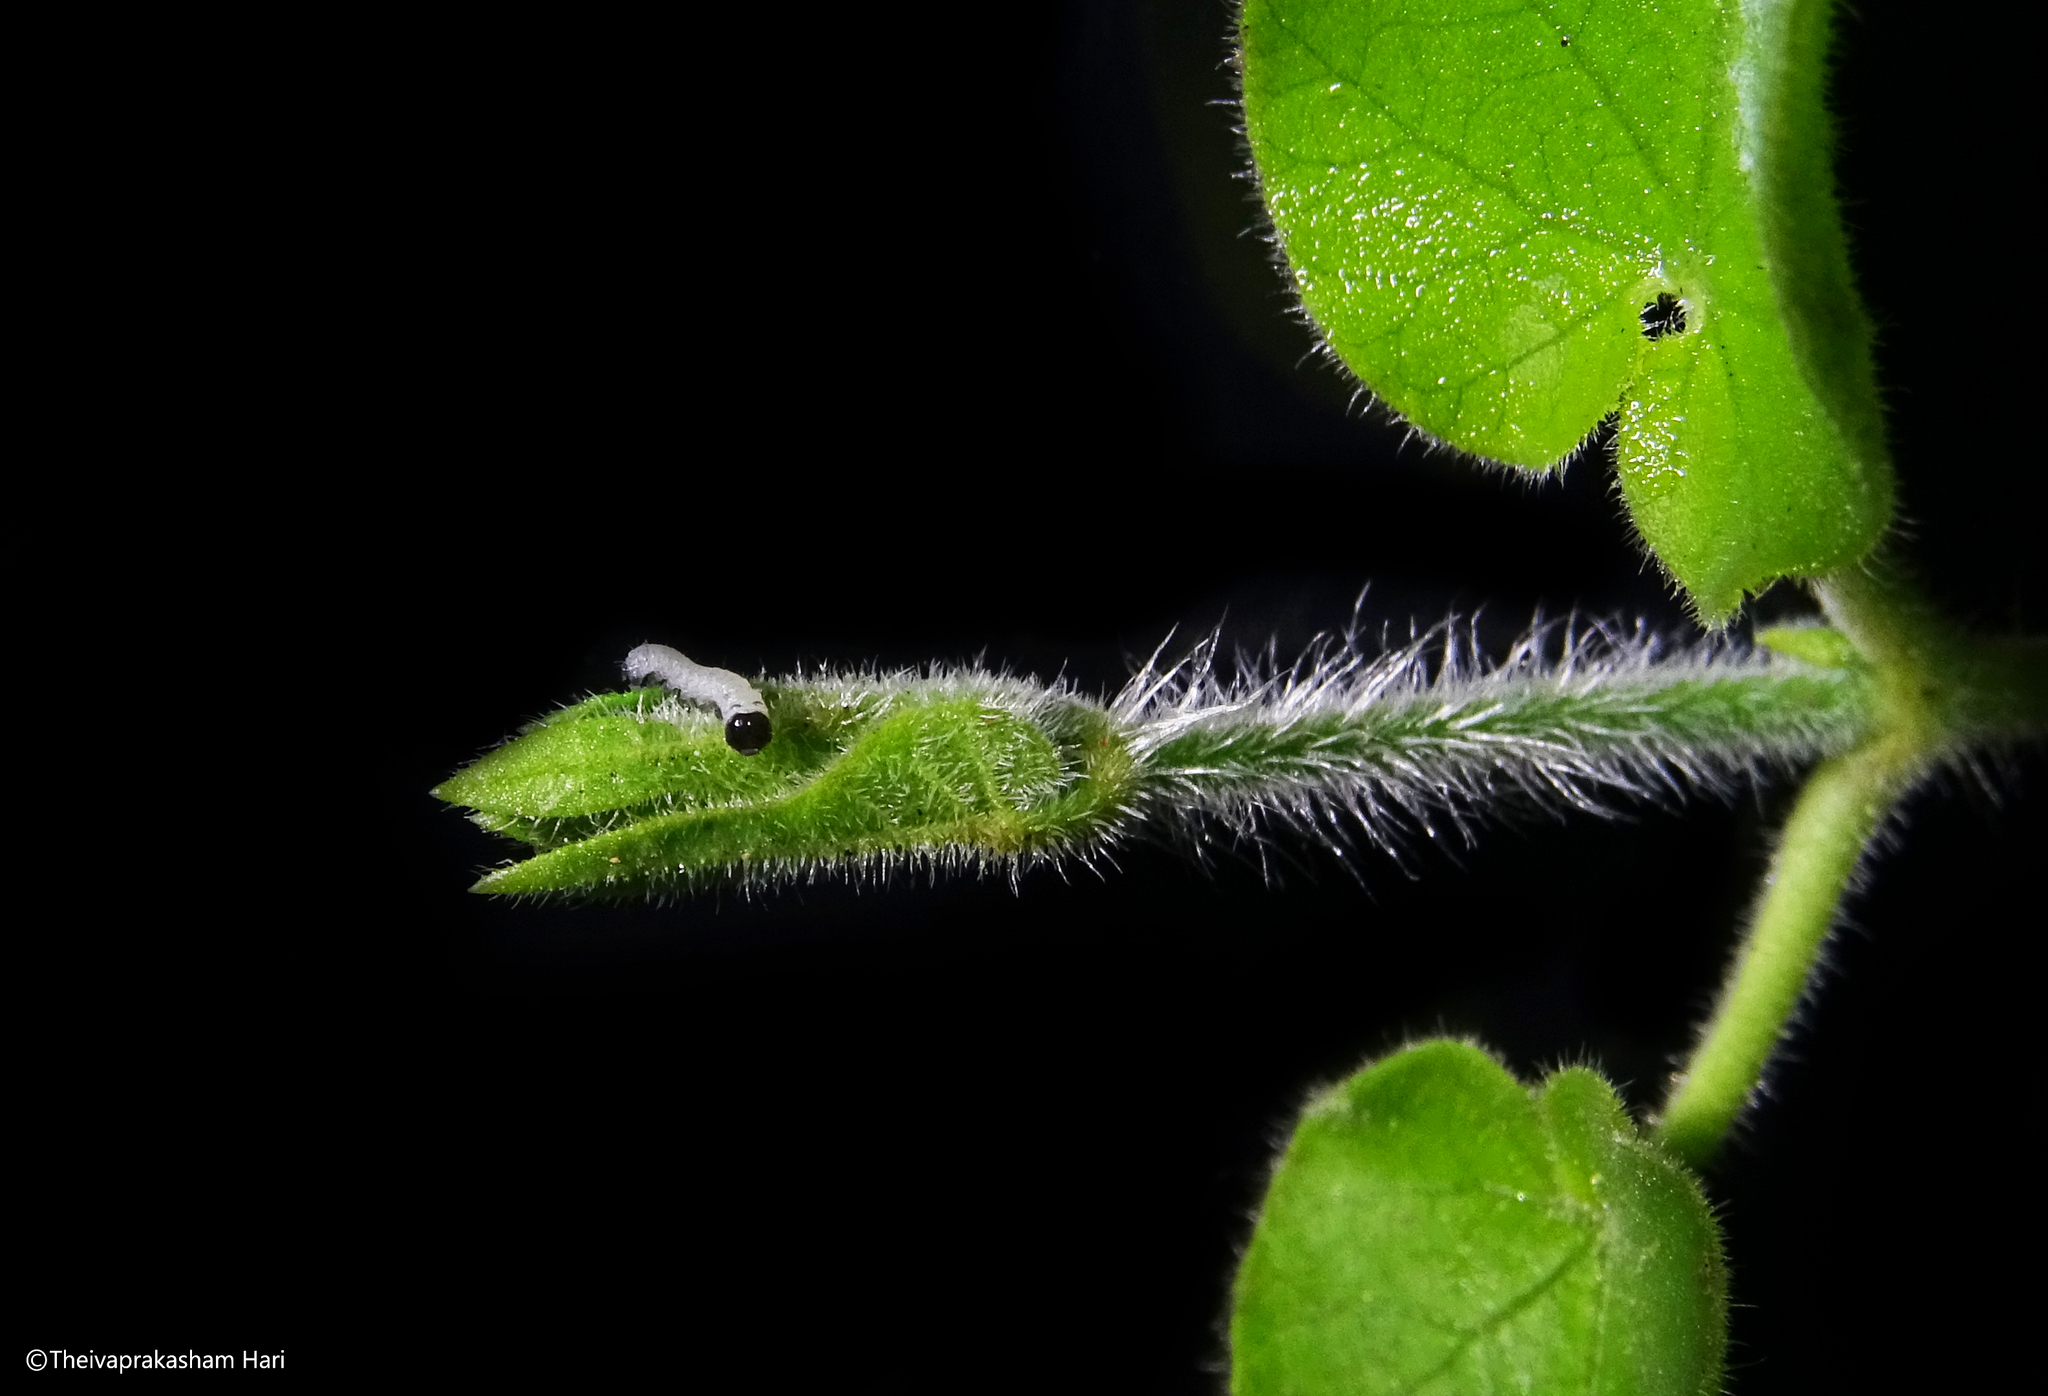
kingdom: Animalia
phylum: Arthropoda
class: Insecta
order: Lepidoptera
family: Nymphalidae
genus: Danaus
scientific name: Danaus genutia
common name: Common tiger butterfly
